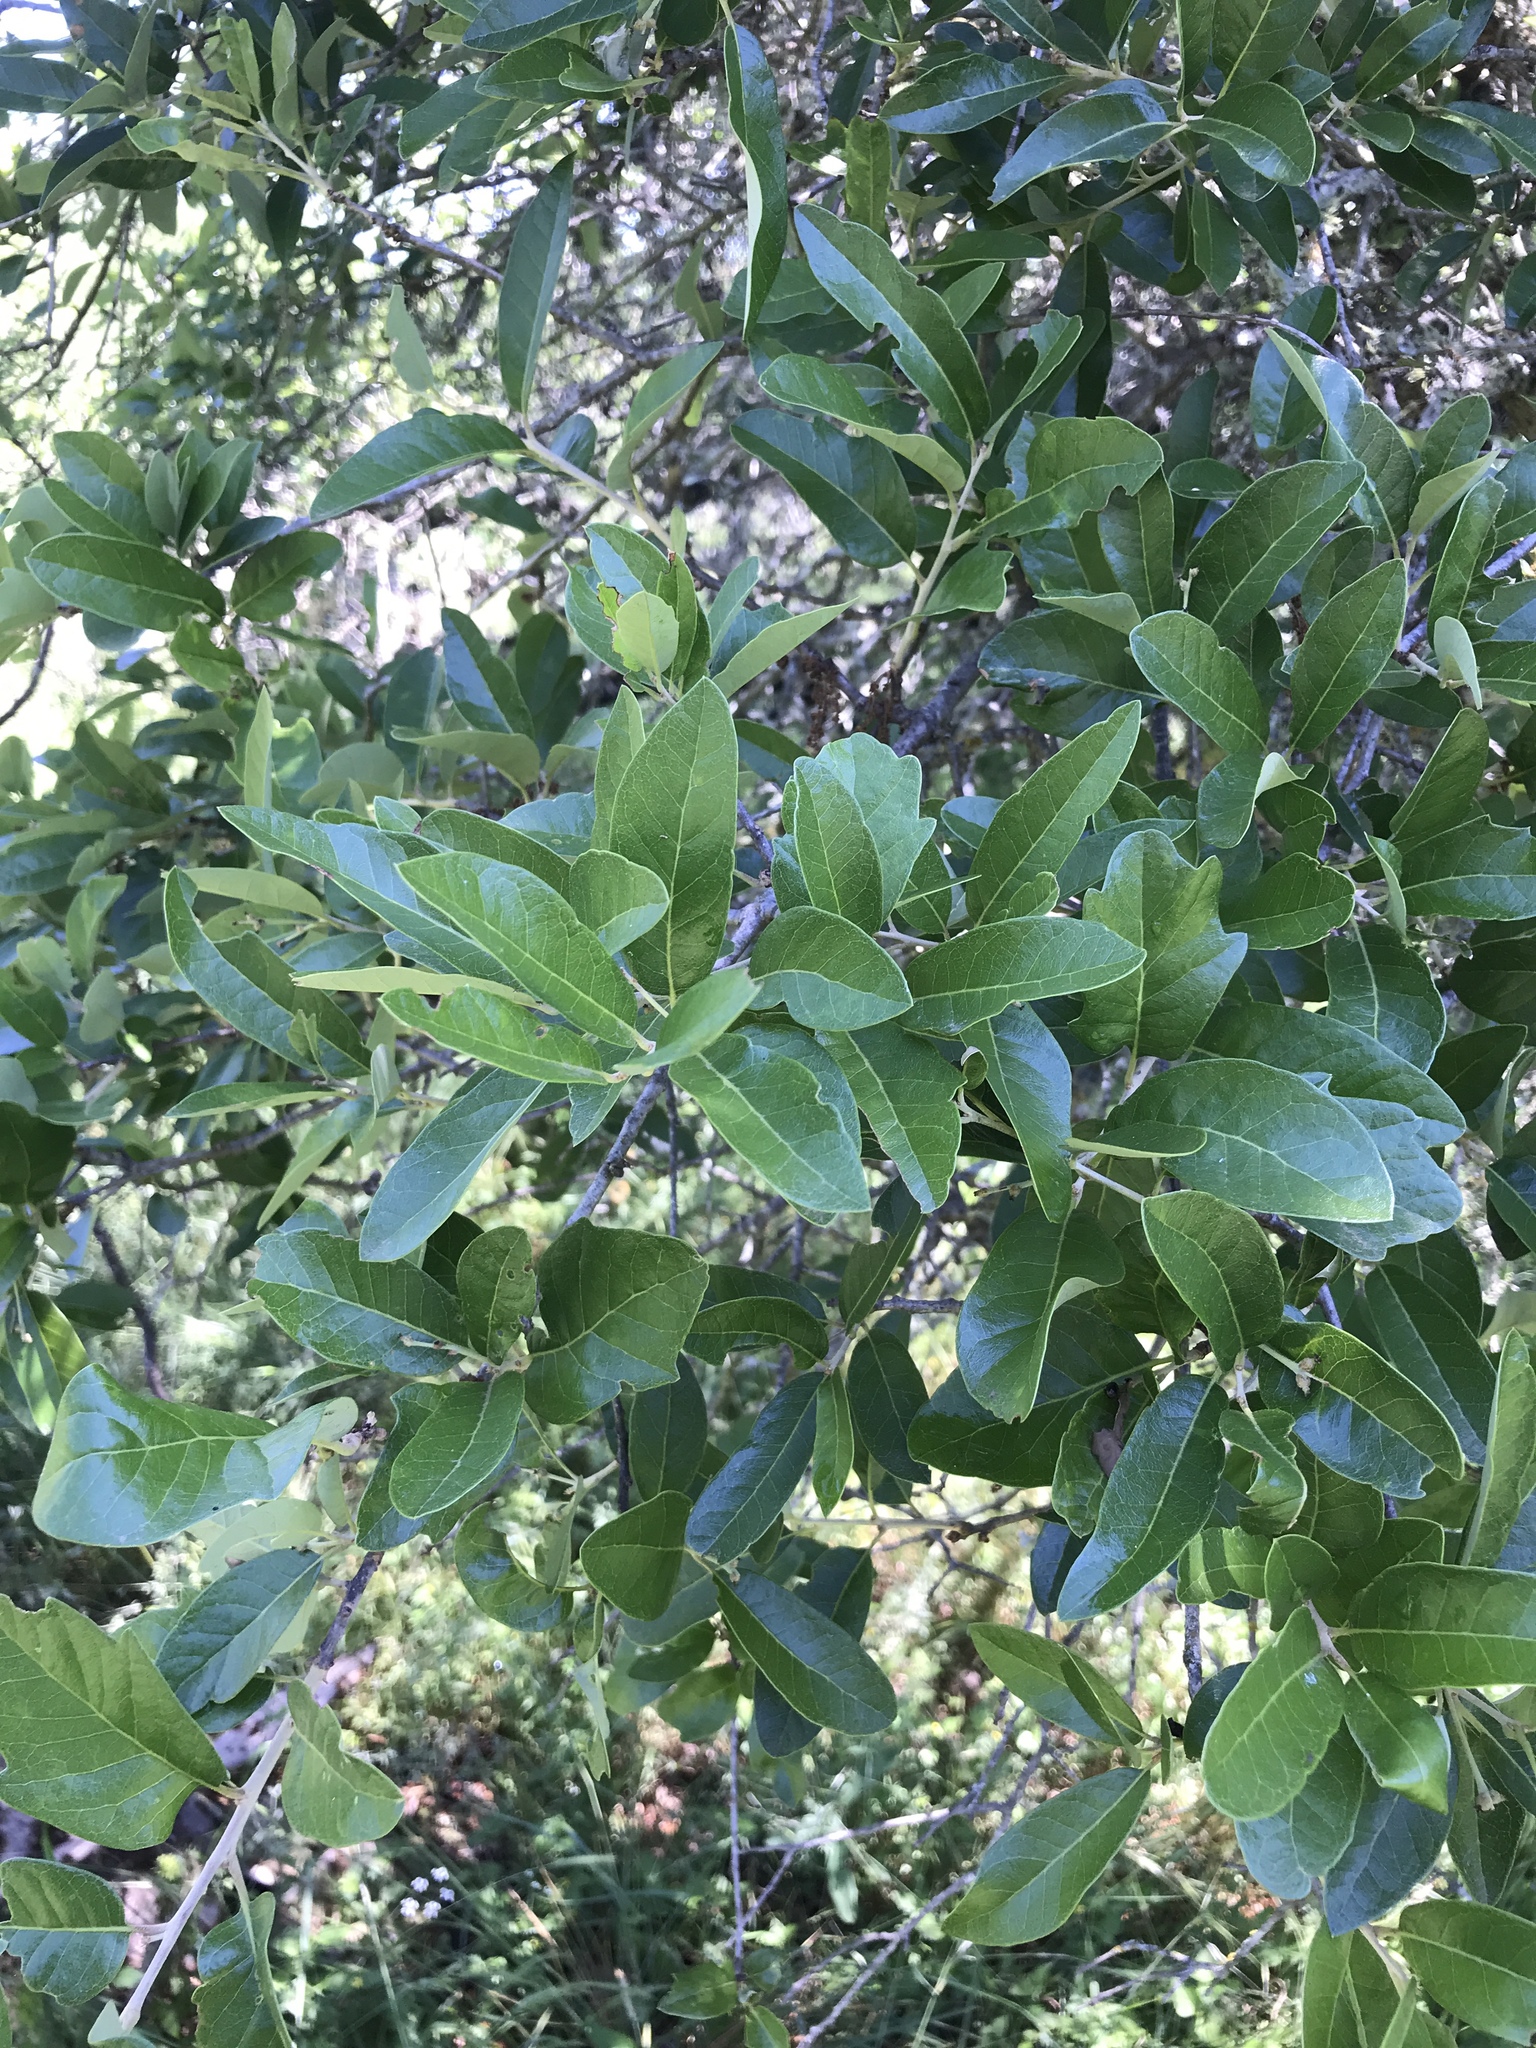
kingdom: Plantae
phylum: Tracheophyta
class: Magnoliopsida
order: Fagales
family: Fagaceae
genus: Quercus
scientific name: Quercus fusiformis
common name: Texas live oak
